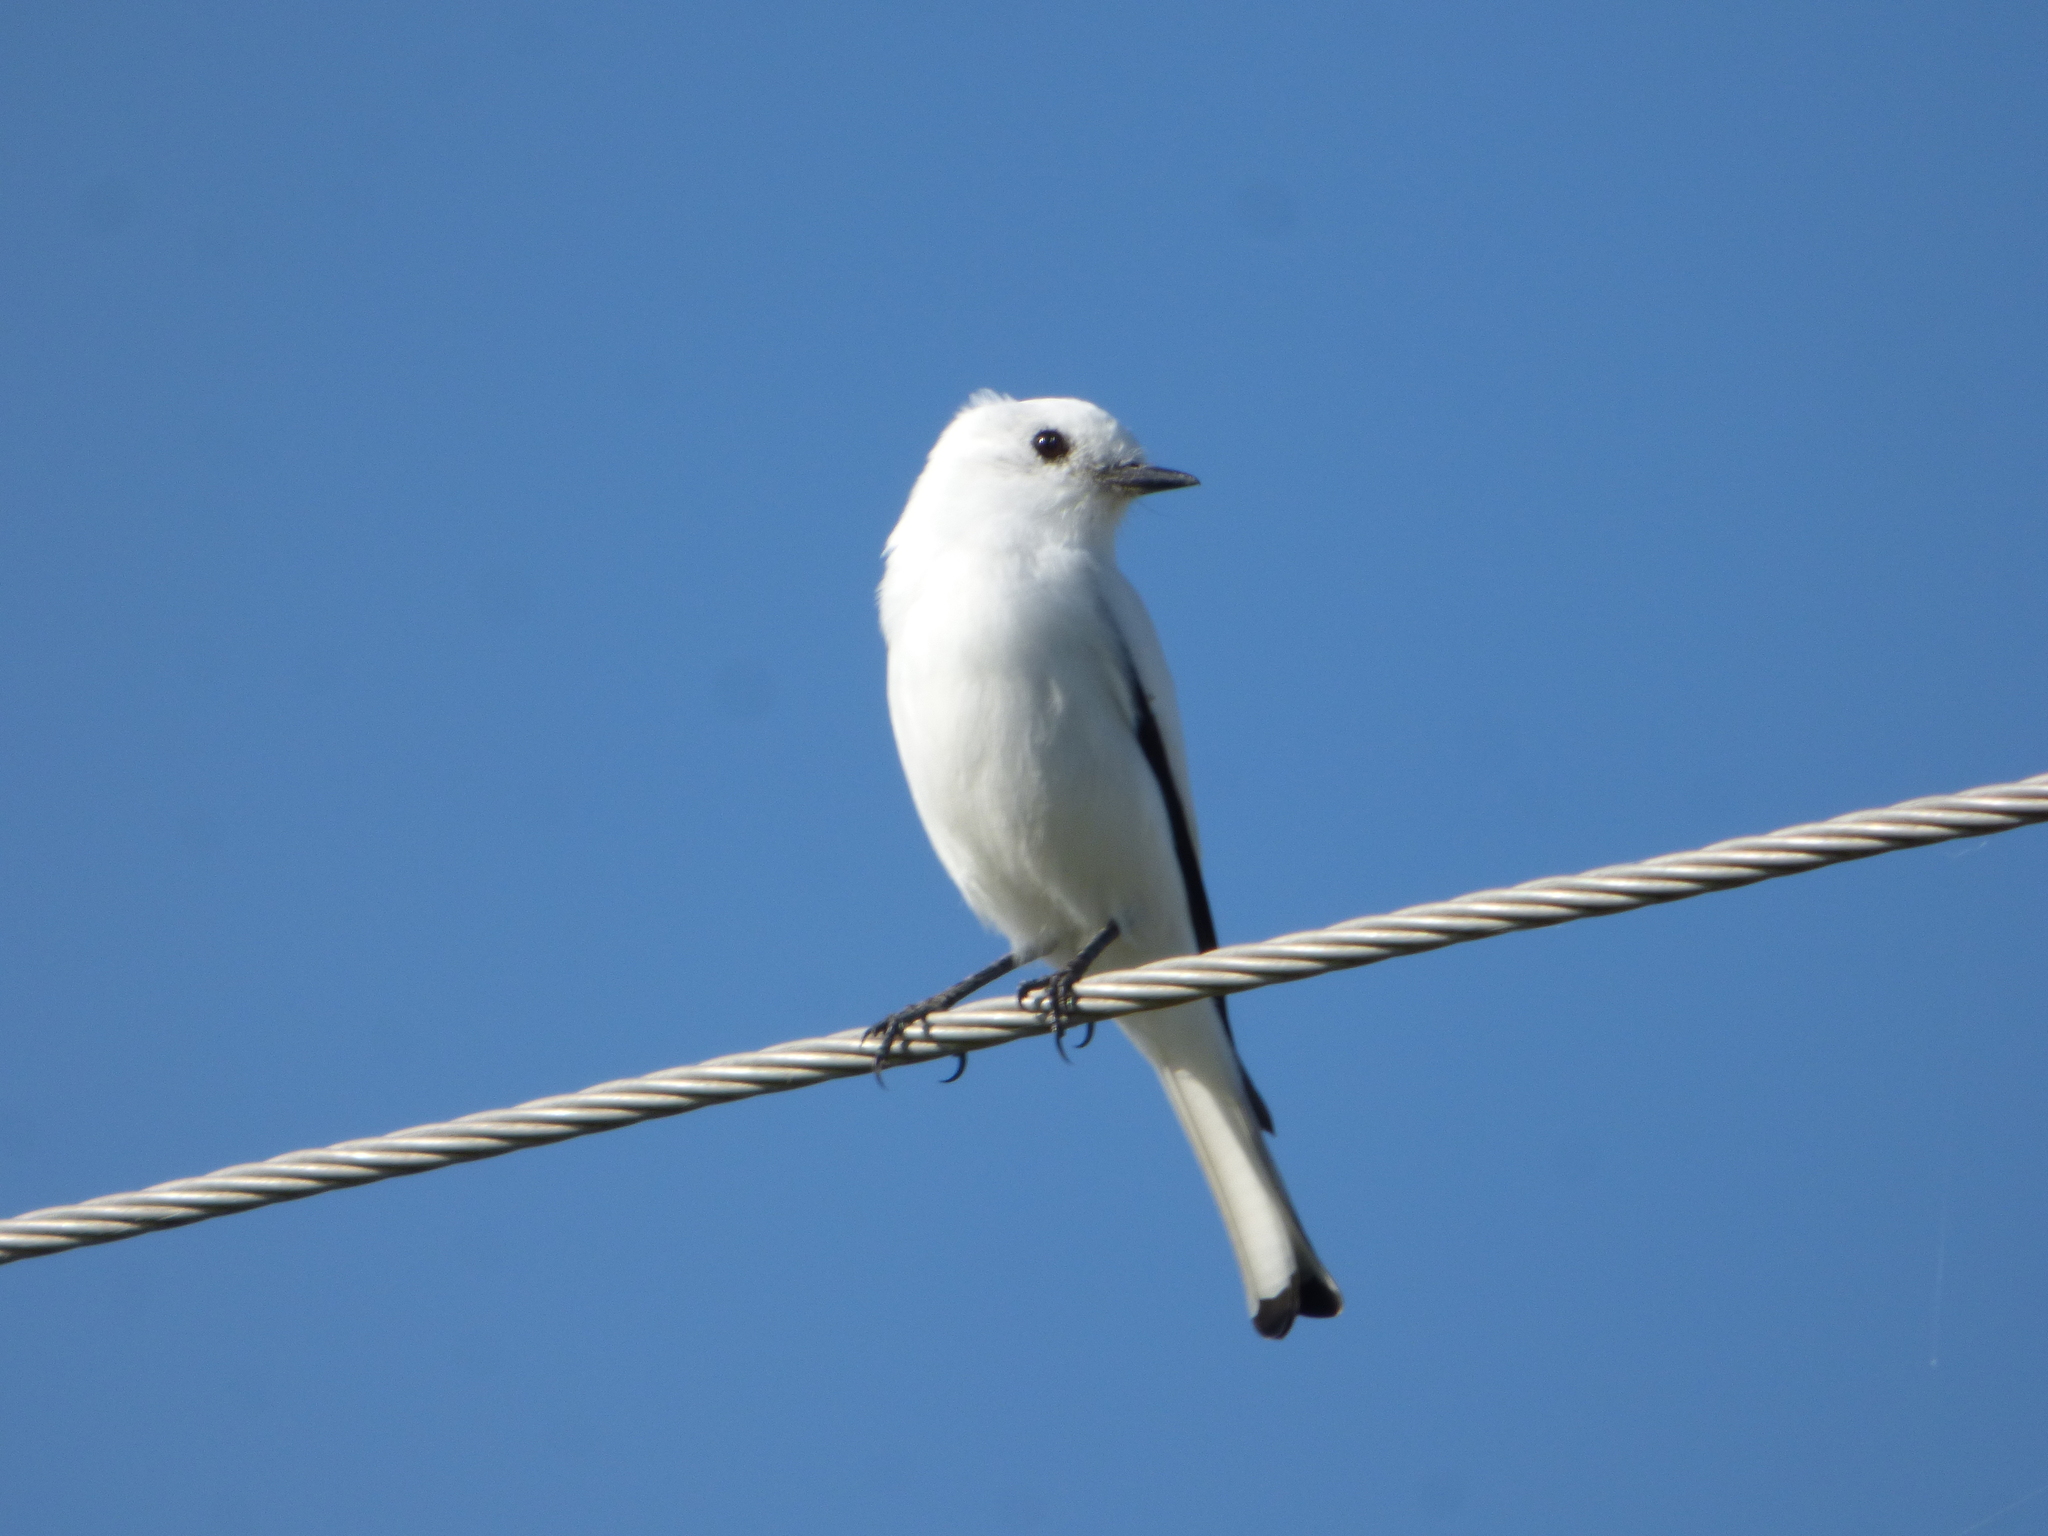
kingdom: Animalia
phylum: Chordata
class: Aves
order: Passeriformes
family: Tyrannidae
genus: Xolmis
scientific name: Xolmis irupero
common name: White monjita
